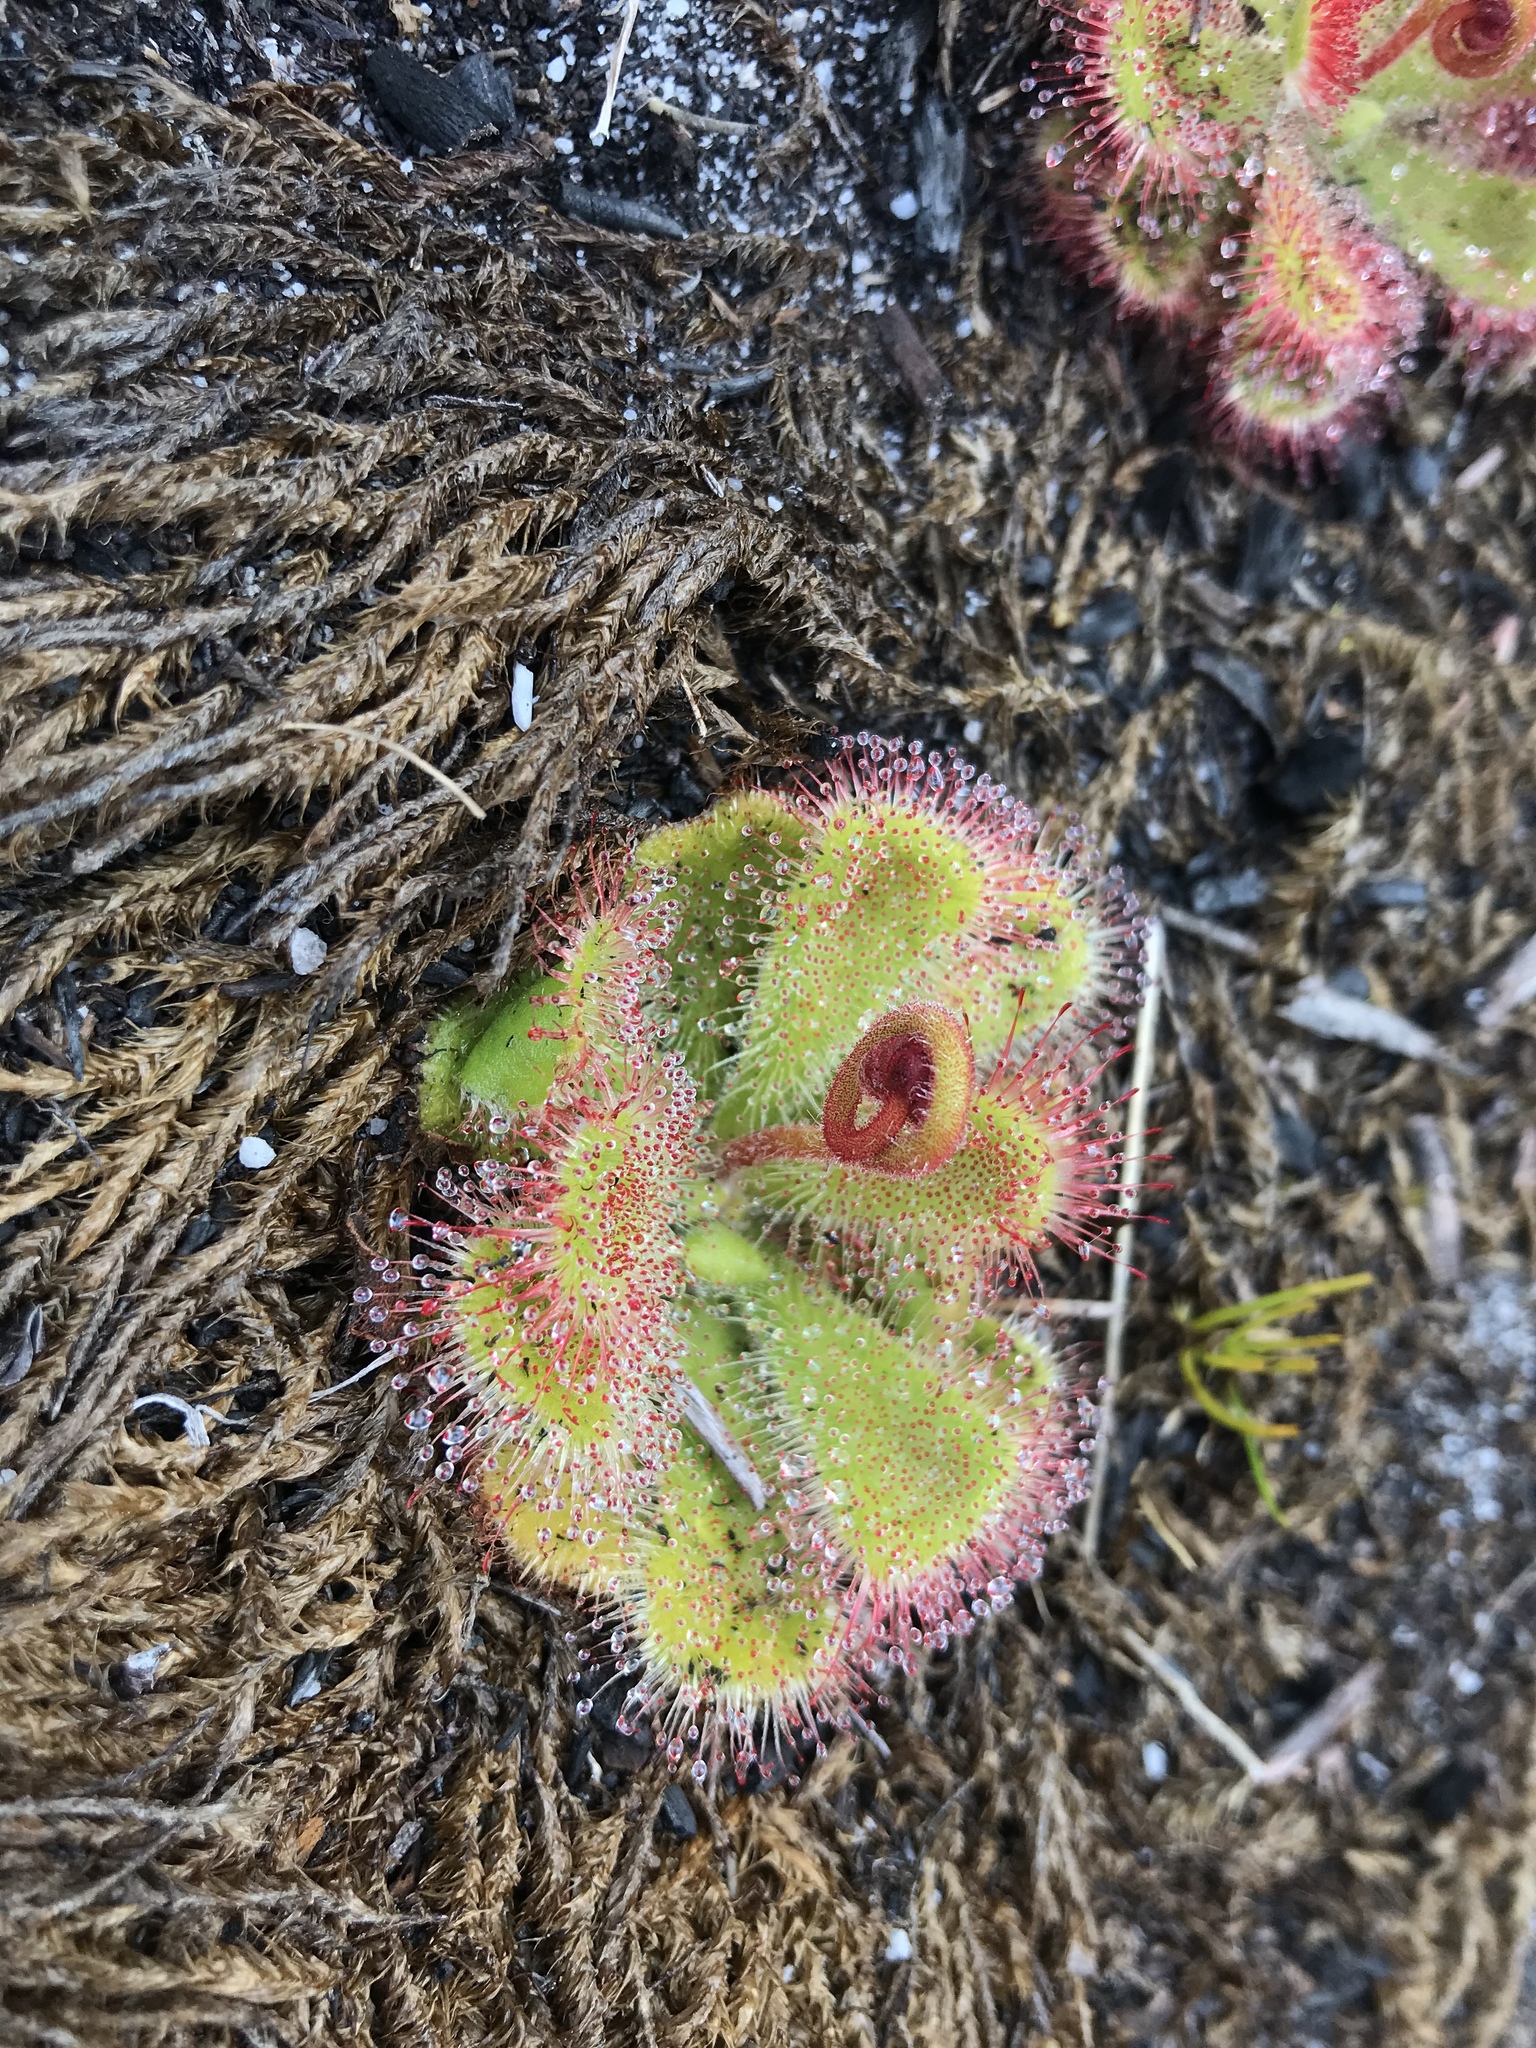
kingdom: Plantae
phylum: Tracheophyta
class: Magnoliopsida
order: Caryophyllales
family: Droseraceae
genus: Drosera
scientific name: Drosera cuneifolia
